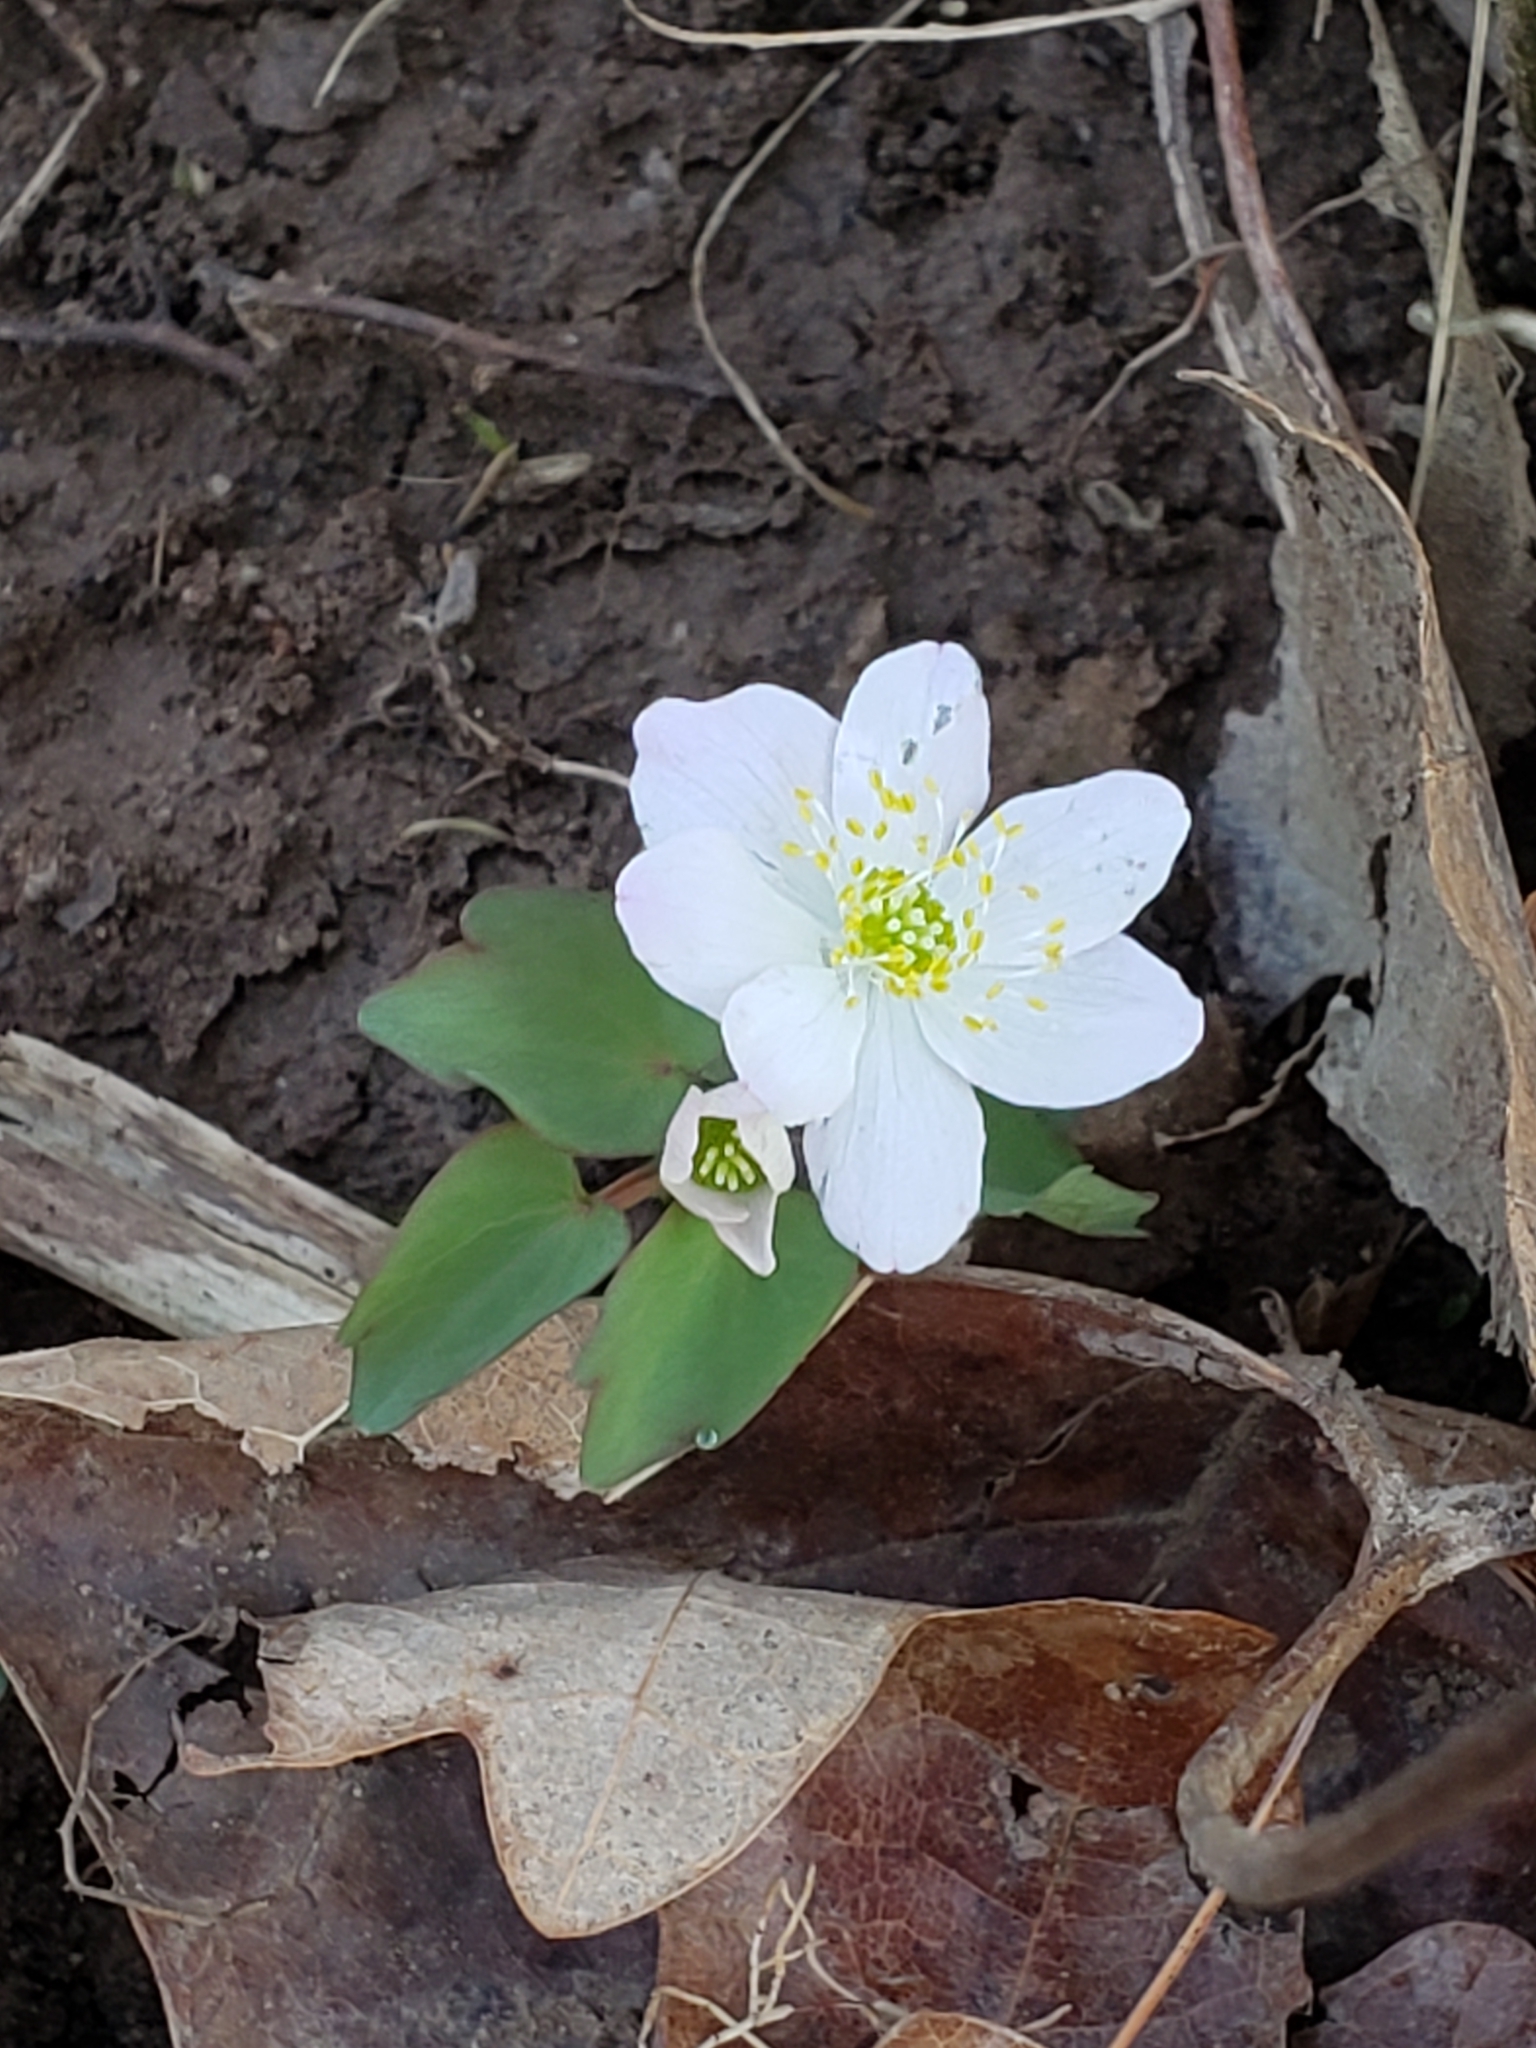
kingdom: Plantae
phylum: Tracheophyta
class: Magnoliopsida
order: Ranunculales
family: Ranunculaceae
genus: Thalictrum
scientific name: Thalictrum thalictroides
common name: Rue-anemone
